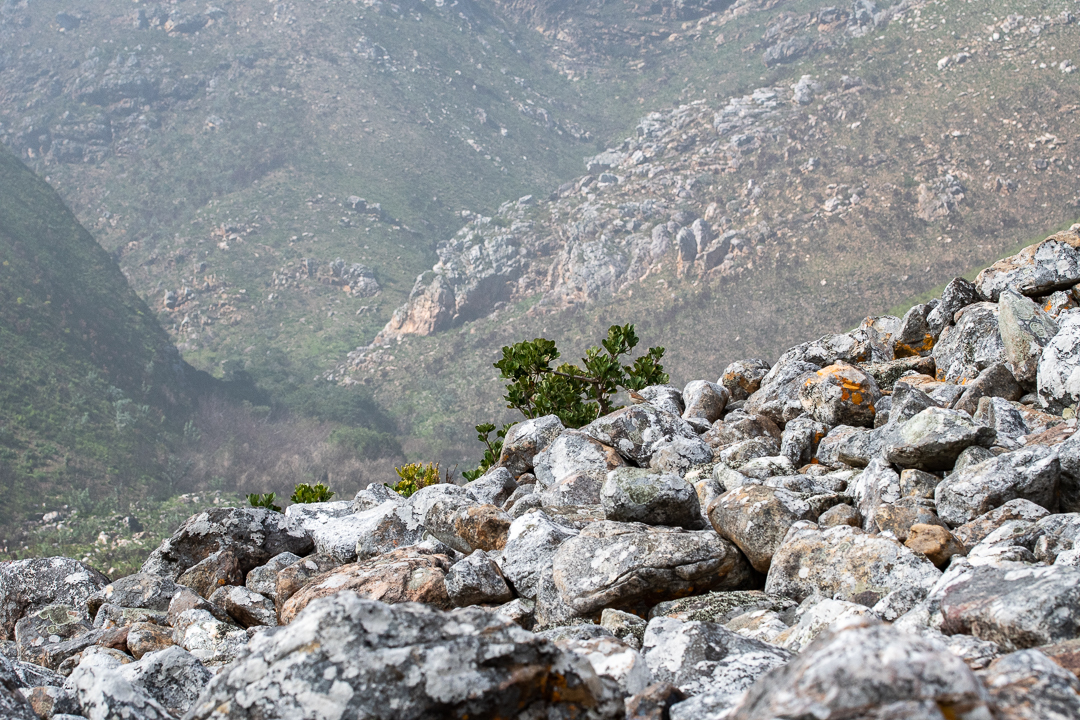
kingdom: Plantae
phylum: Tracheophyta
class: Magnoliopsida
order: Apiales
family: Araliaceae
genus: Cussonia
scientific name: Cussonia thyrsiflora
